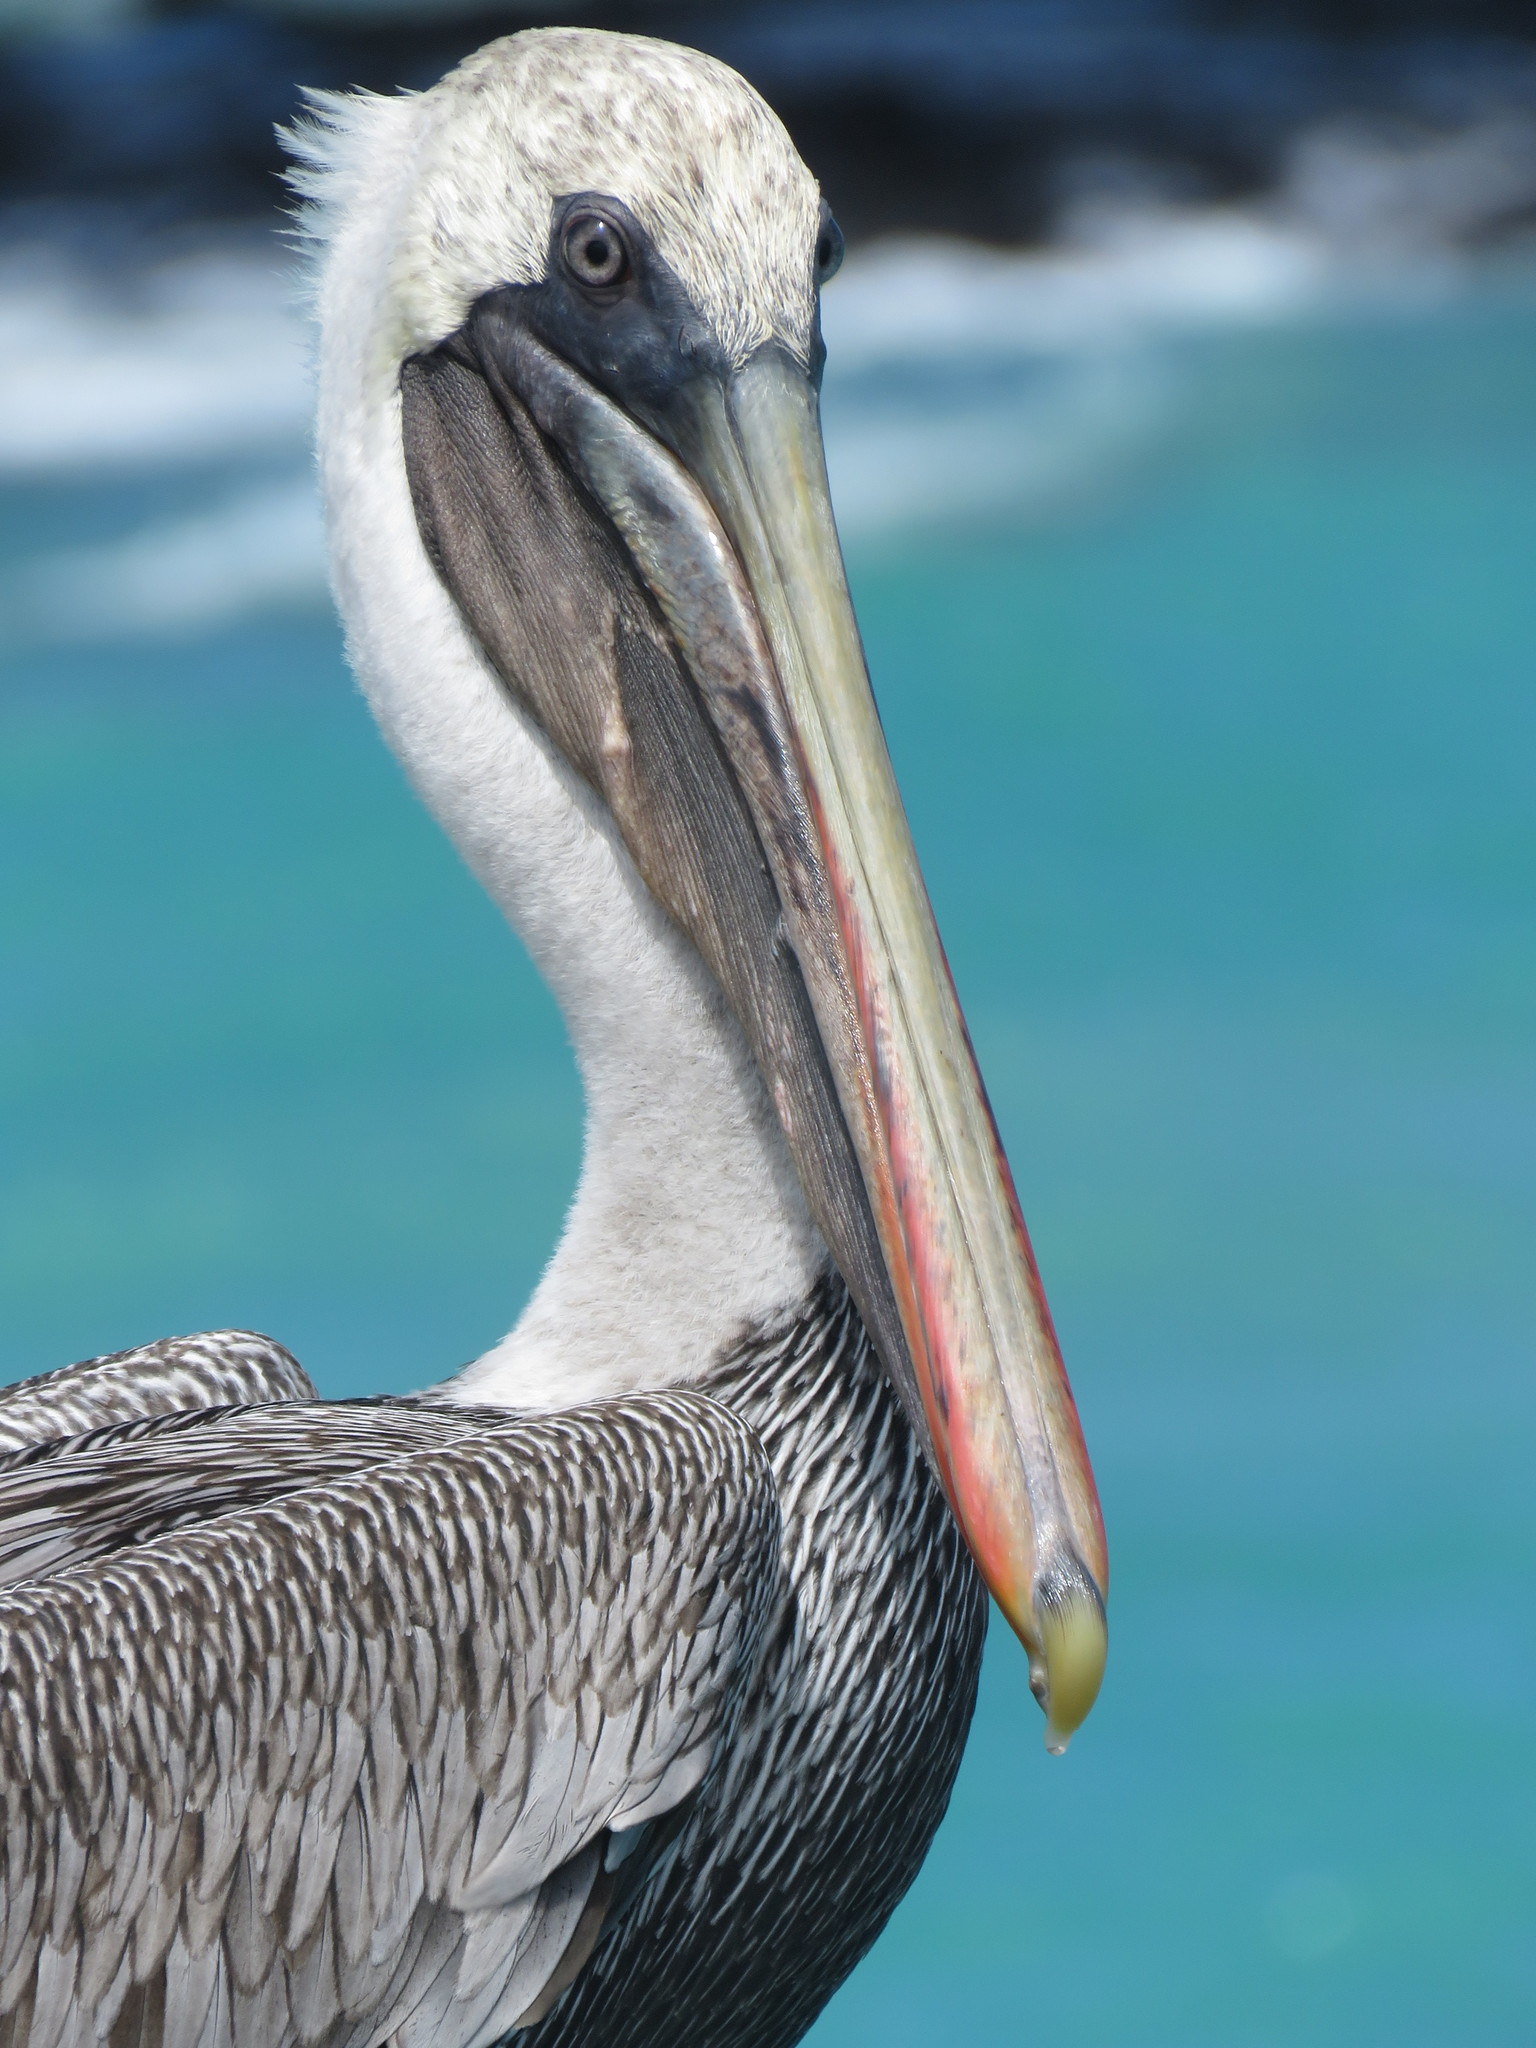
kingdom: Animalia
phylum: Chordata
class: Aves
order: Pelecaniformes
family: Pelecanidae
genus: Pelecanus
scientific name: Pelecanus occidentalis
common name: Brown pelican
